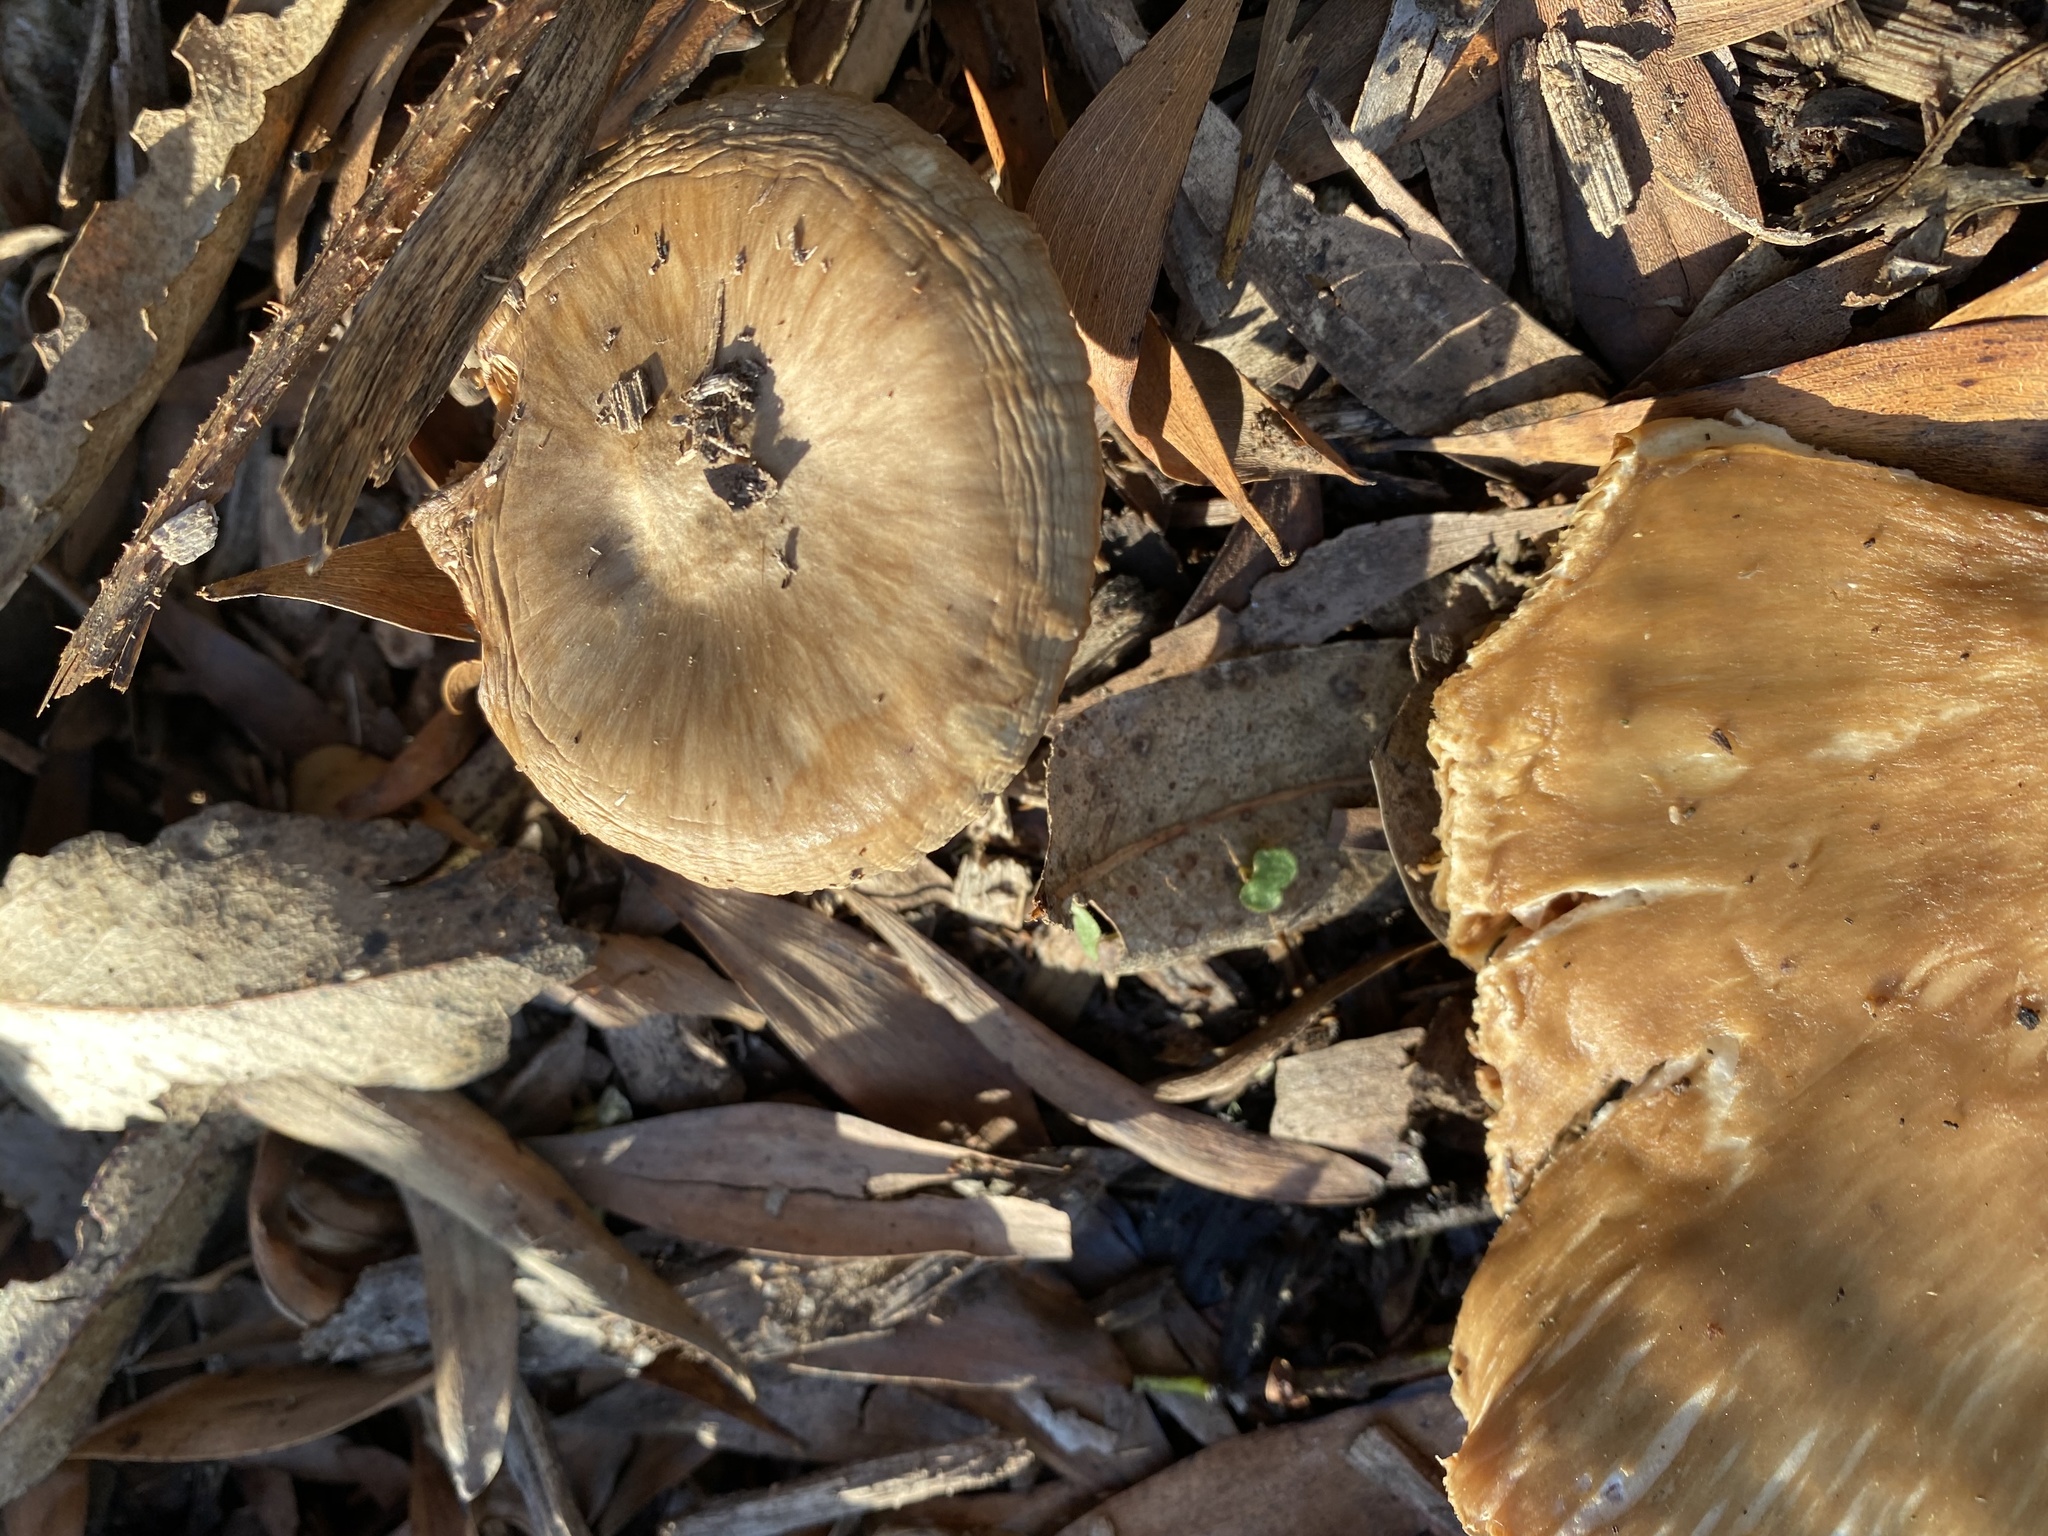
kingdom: Fungi
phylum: Basidiomycota
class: Agaricomycetes
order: Agaricales
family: Pluteaceae
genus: Volvopluteus
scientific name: Volvopluteus gloiocephalus
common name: Stubble rosegill
